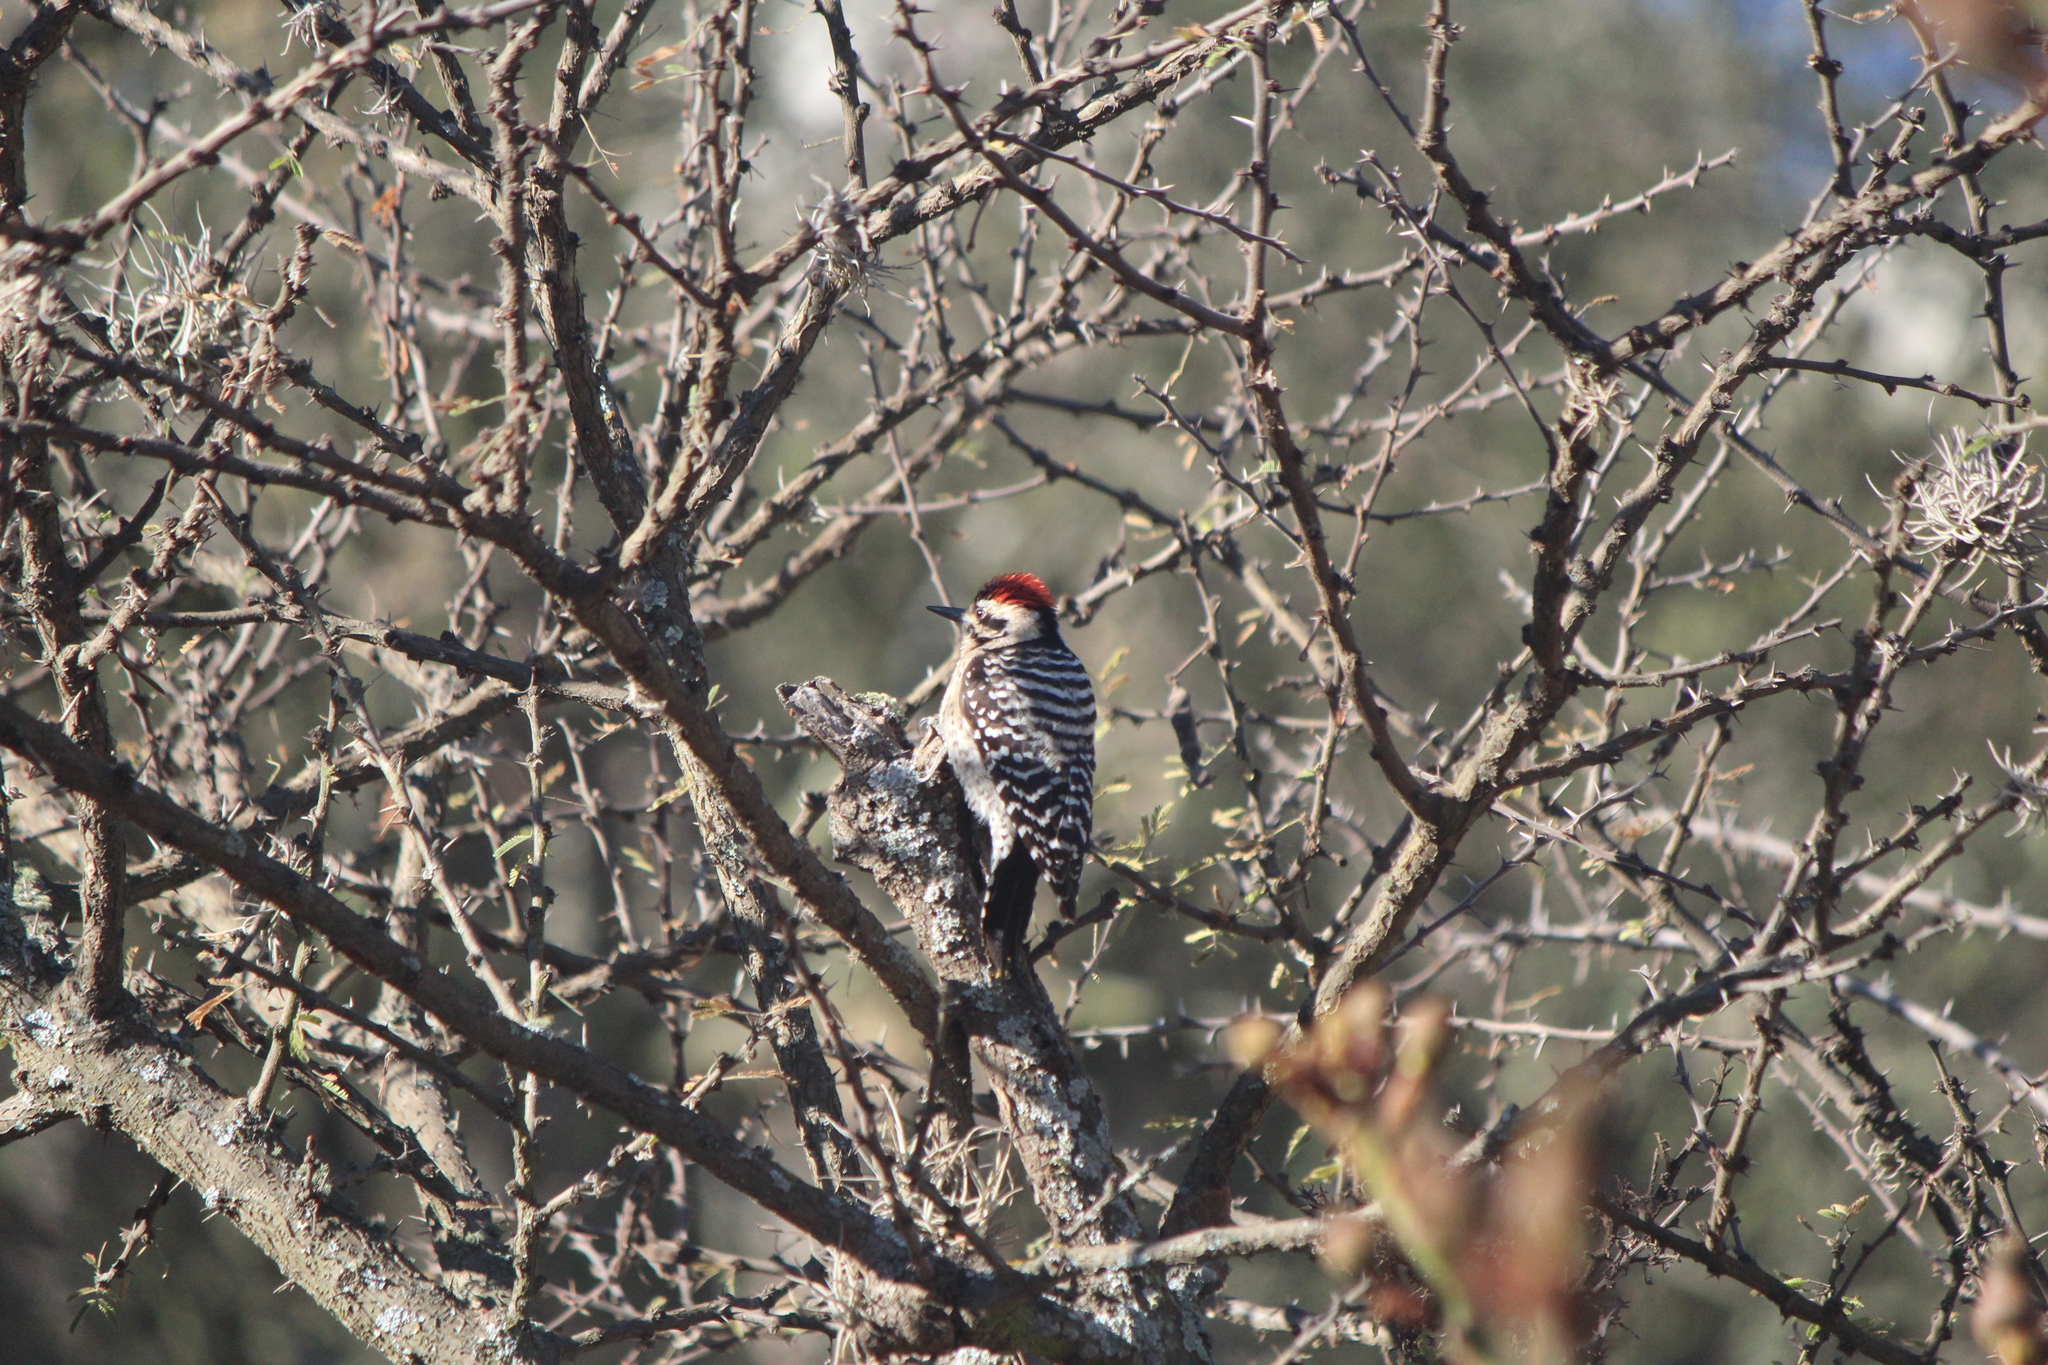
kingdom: Animalia
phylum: Chordata
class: Aves
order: Piciformes
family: Picidae
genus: Dryobates
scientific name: Dryobates scalaris
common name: Ladder-backed woodpecker
